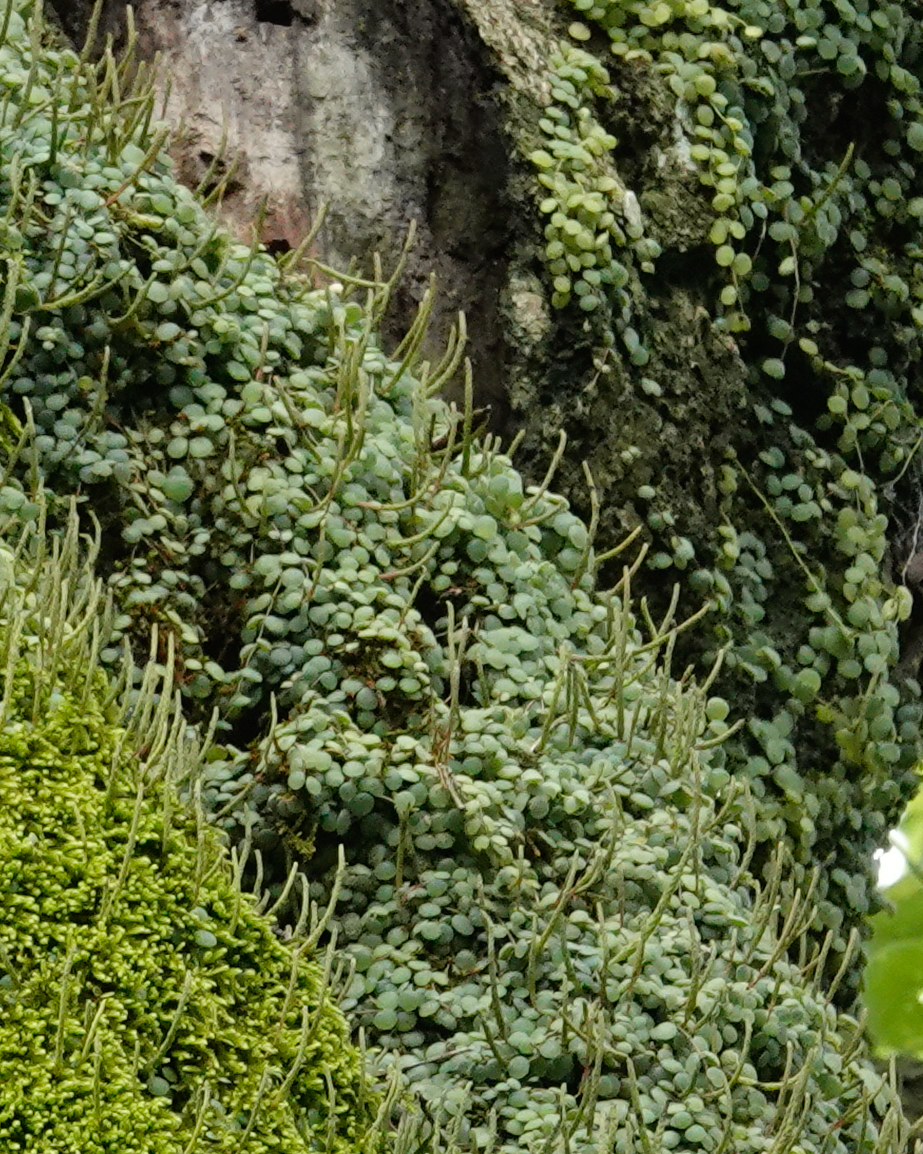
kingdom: Plantae
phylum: Tracheophyta
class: Magnoliopsida
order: Piperales
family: Piperaceae
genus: Peperomia
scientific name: Peperomia circinnata
